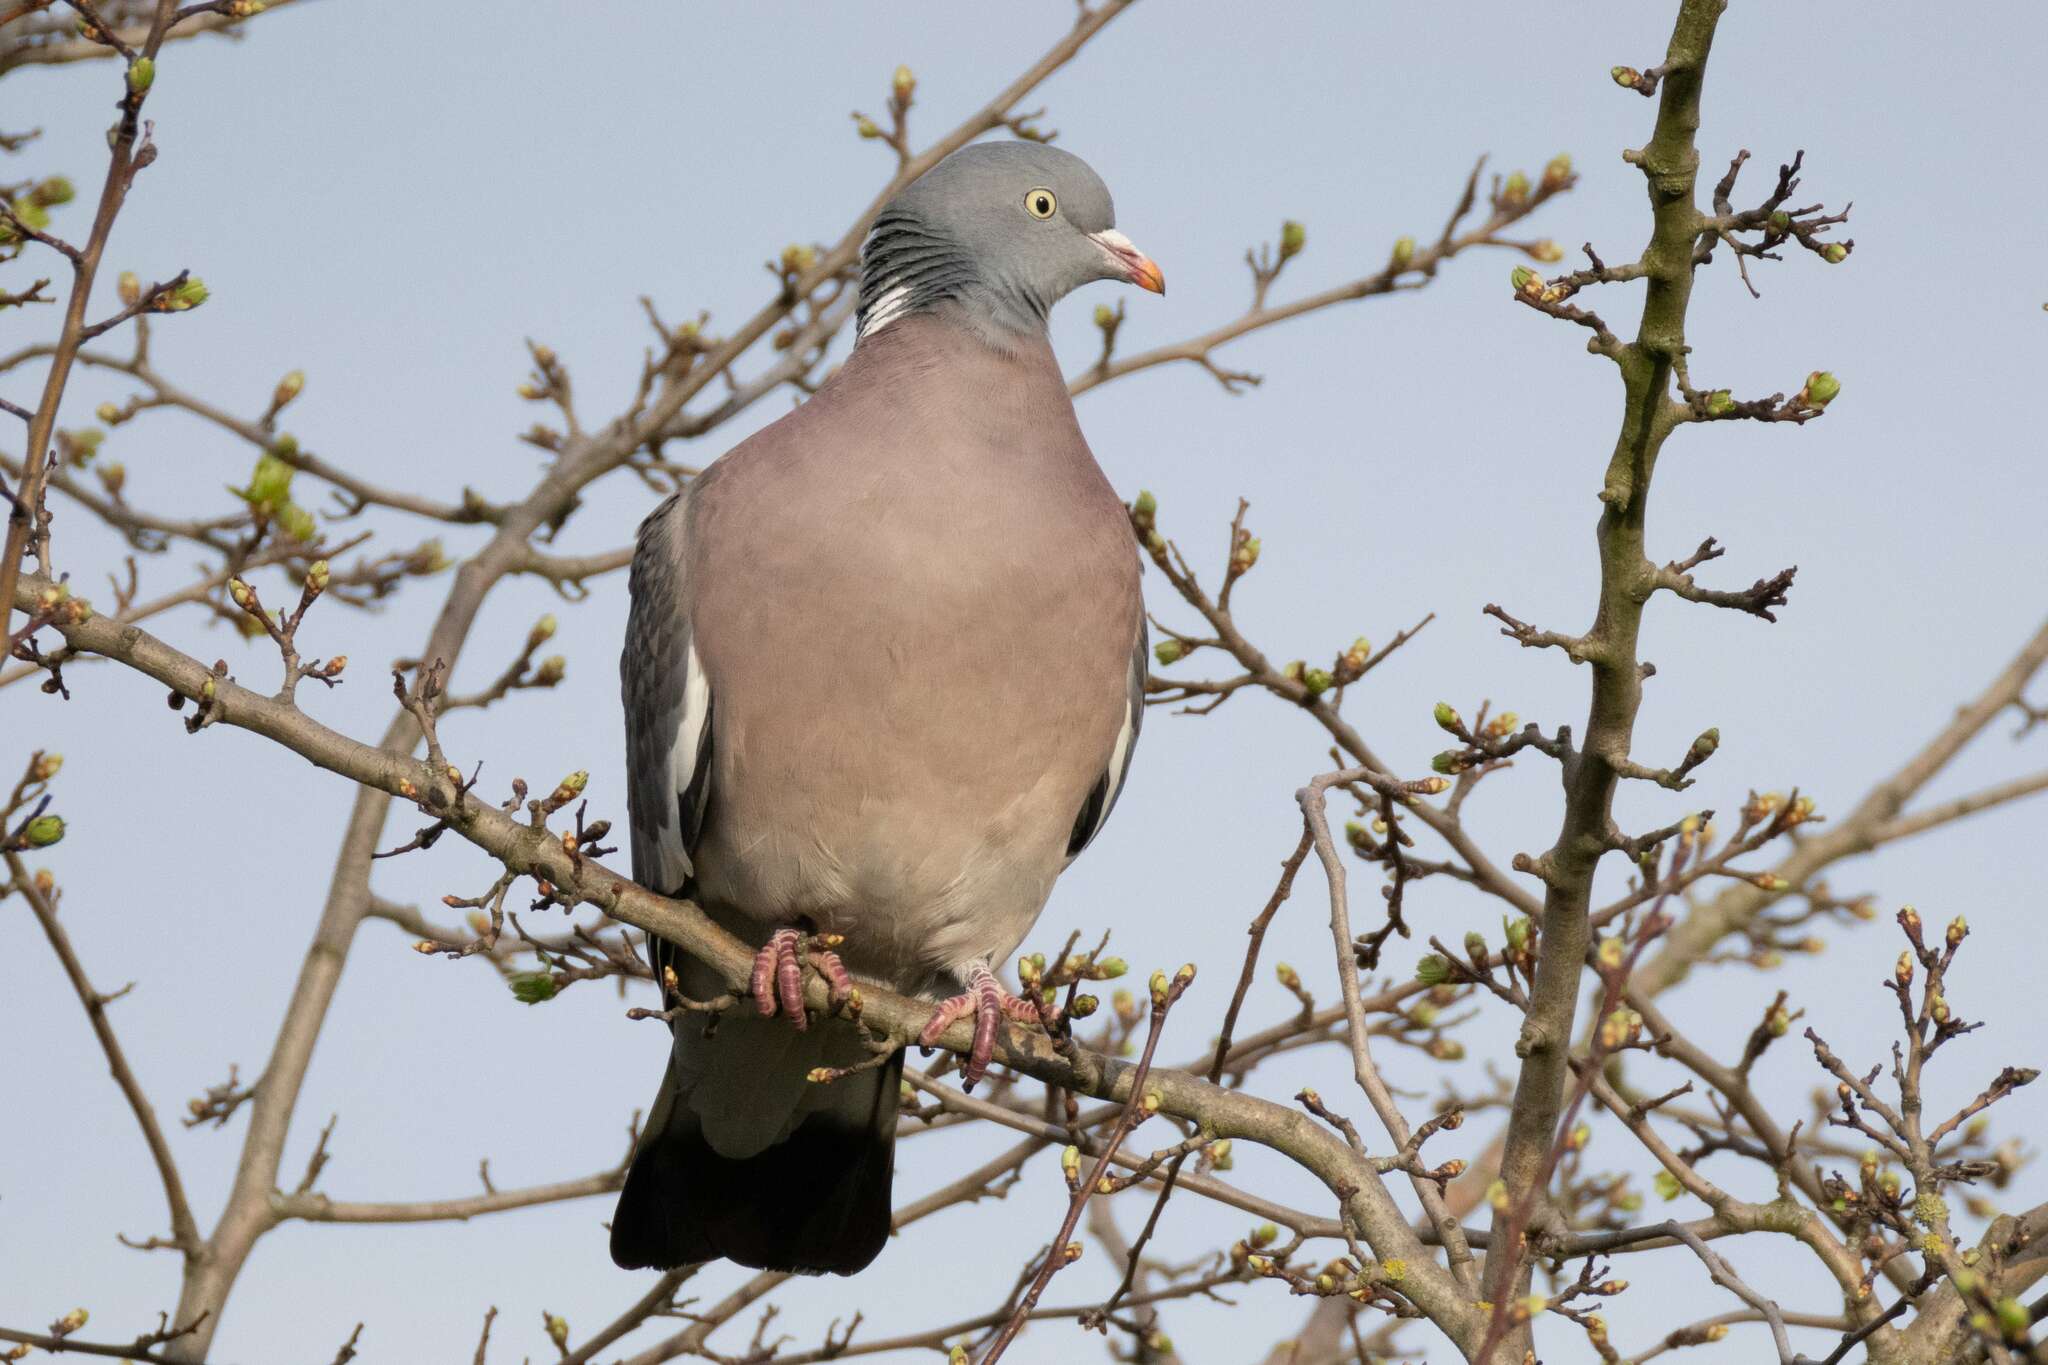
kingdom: Animalia
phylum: Chordata
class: Aves
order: Columbiformes
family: Columbidae
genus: Columba
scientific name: Columba palumbus
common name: Common wood pigeon
